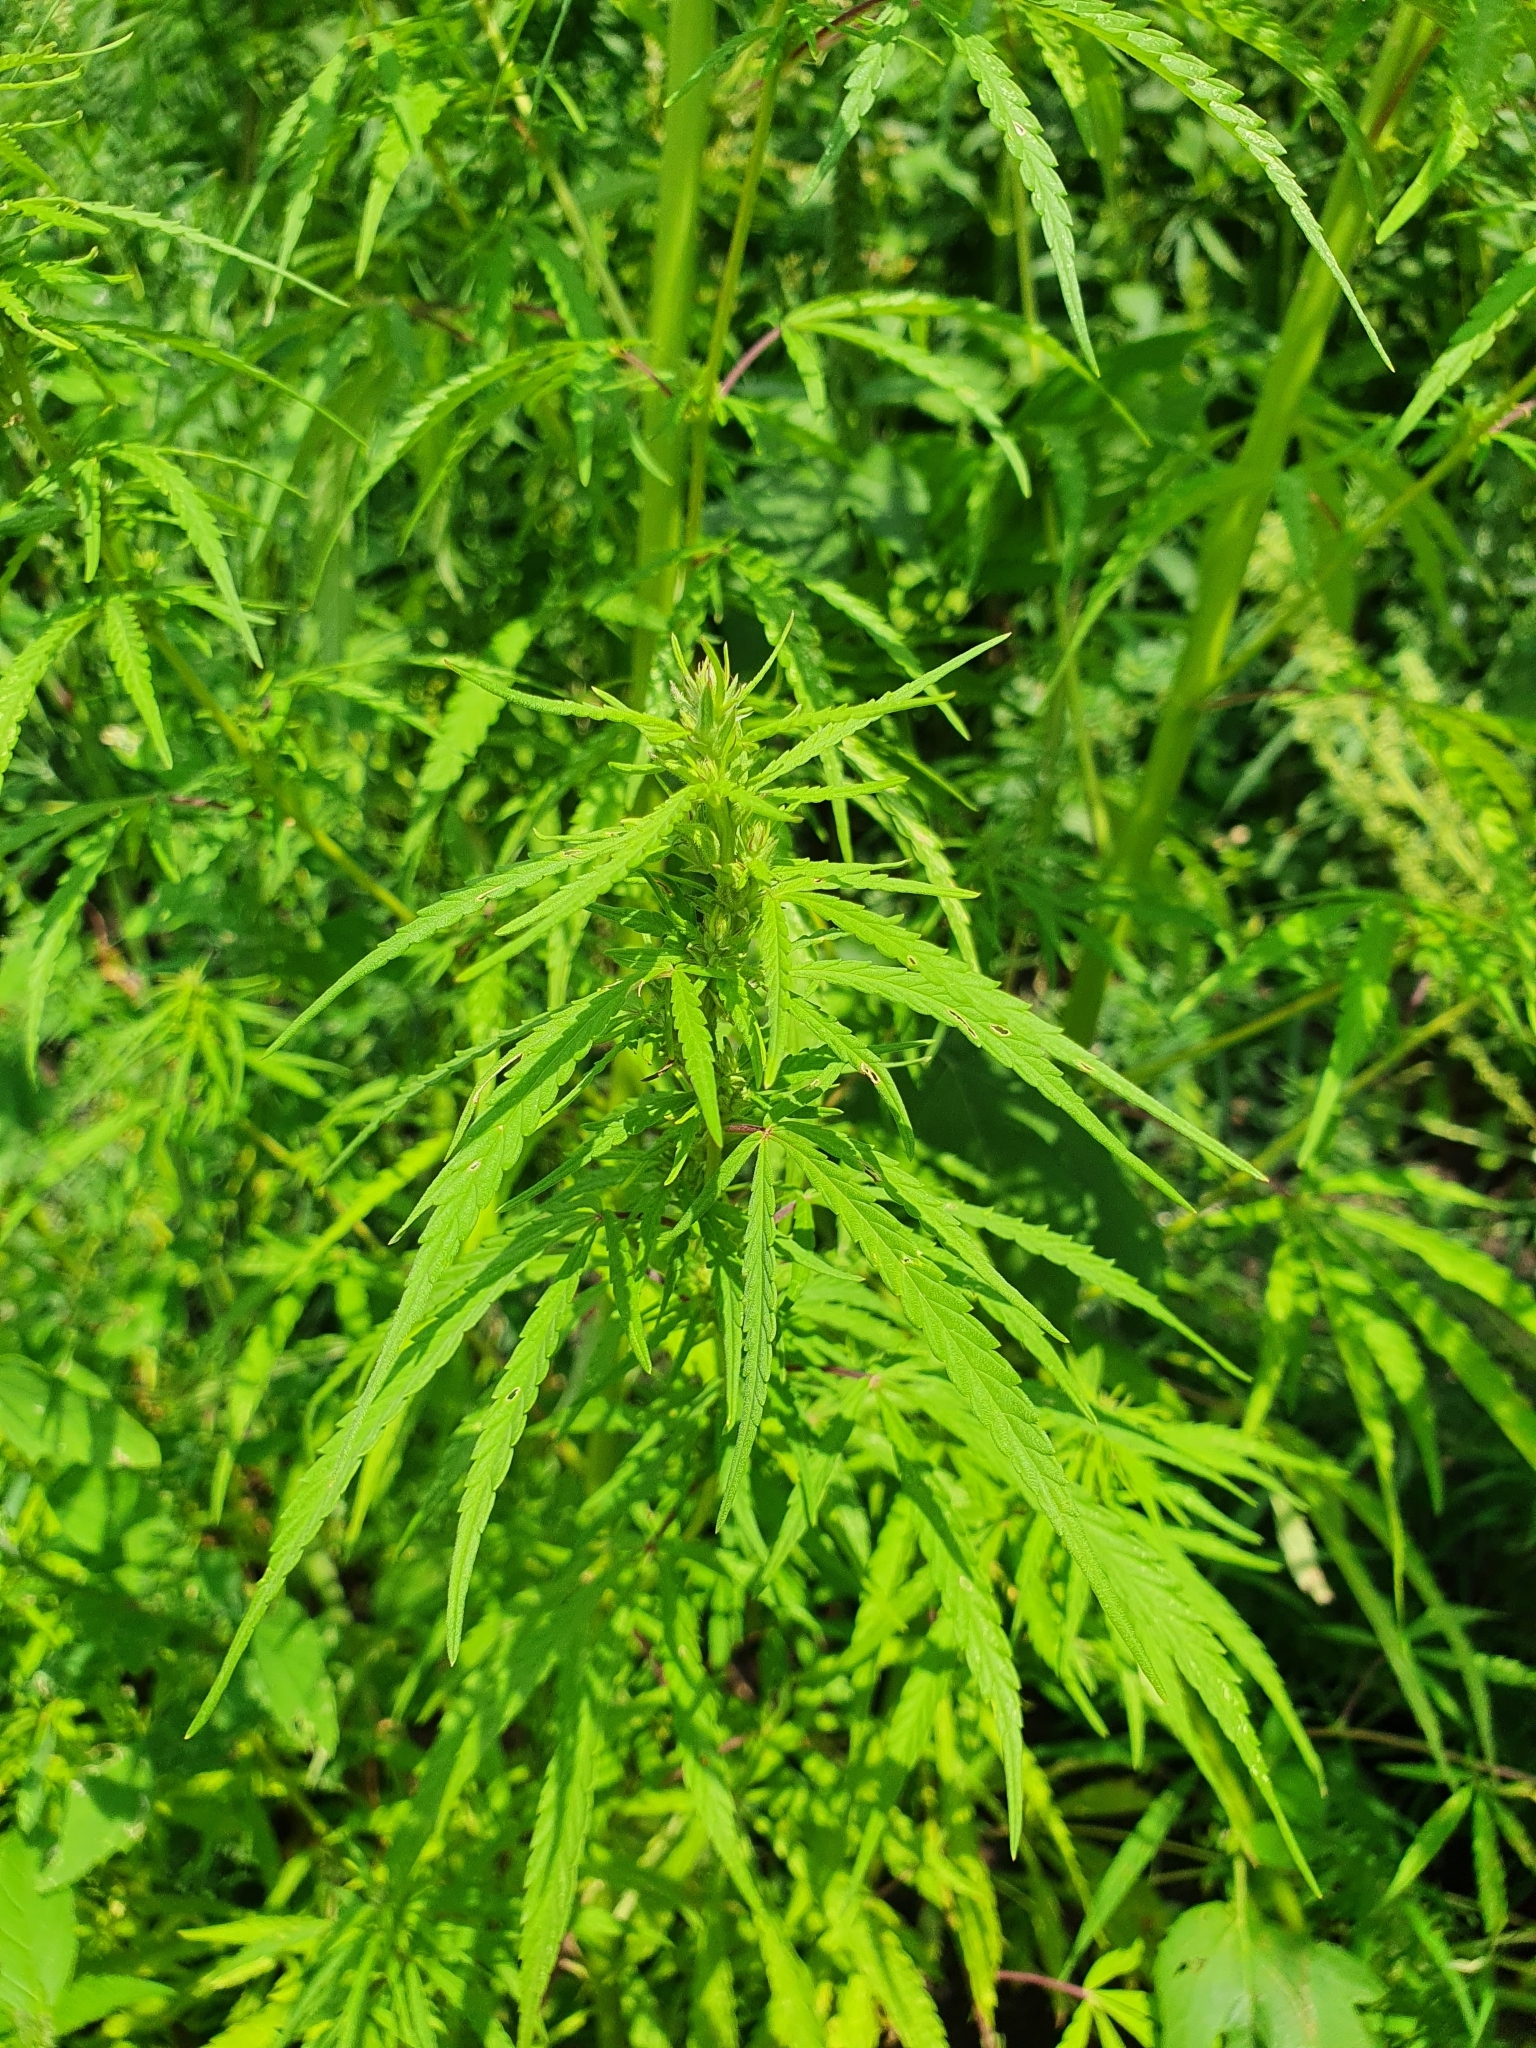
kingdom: Plantae
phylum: Tracheophyta
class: Magnoliopsida
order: Rosales
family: Cannabaceae
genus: Cannabis
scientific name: Cannabis sativa
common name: Hemp
